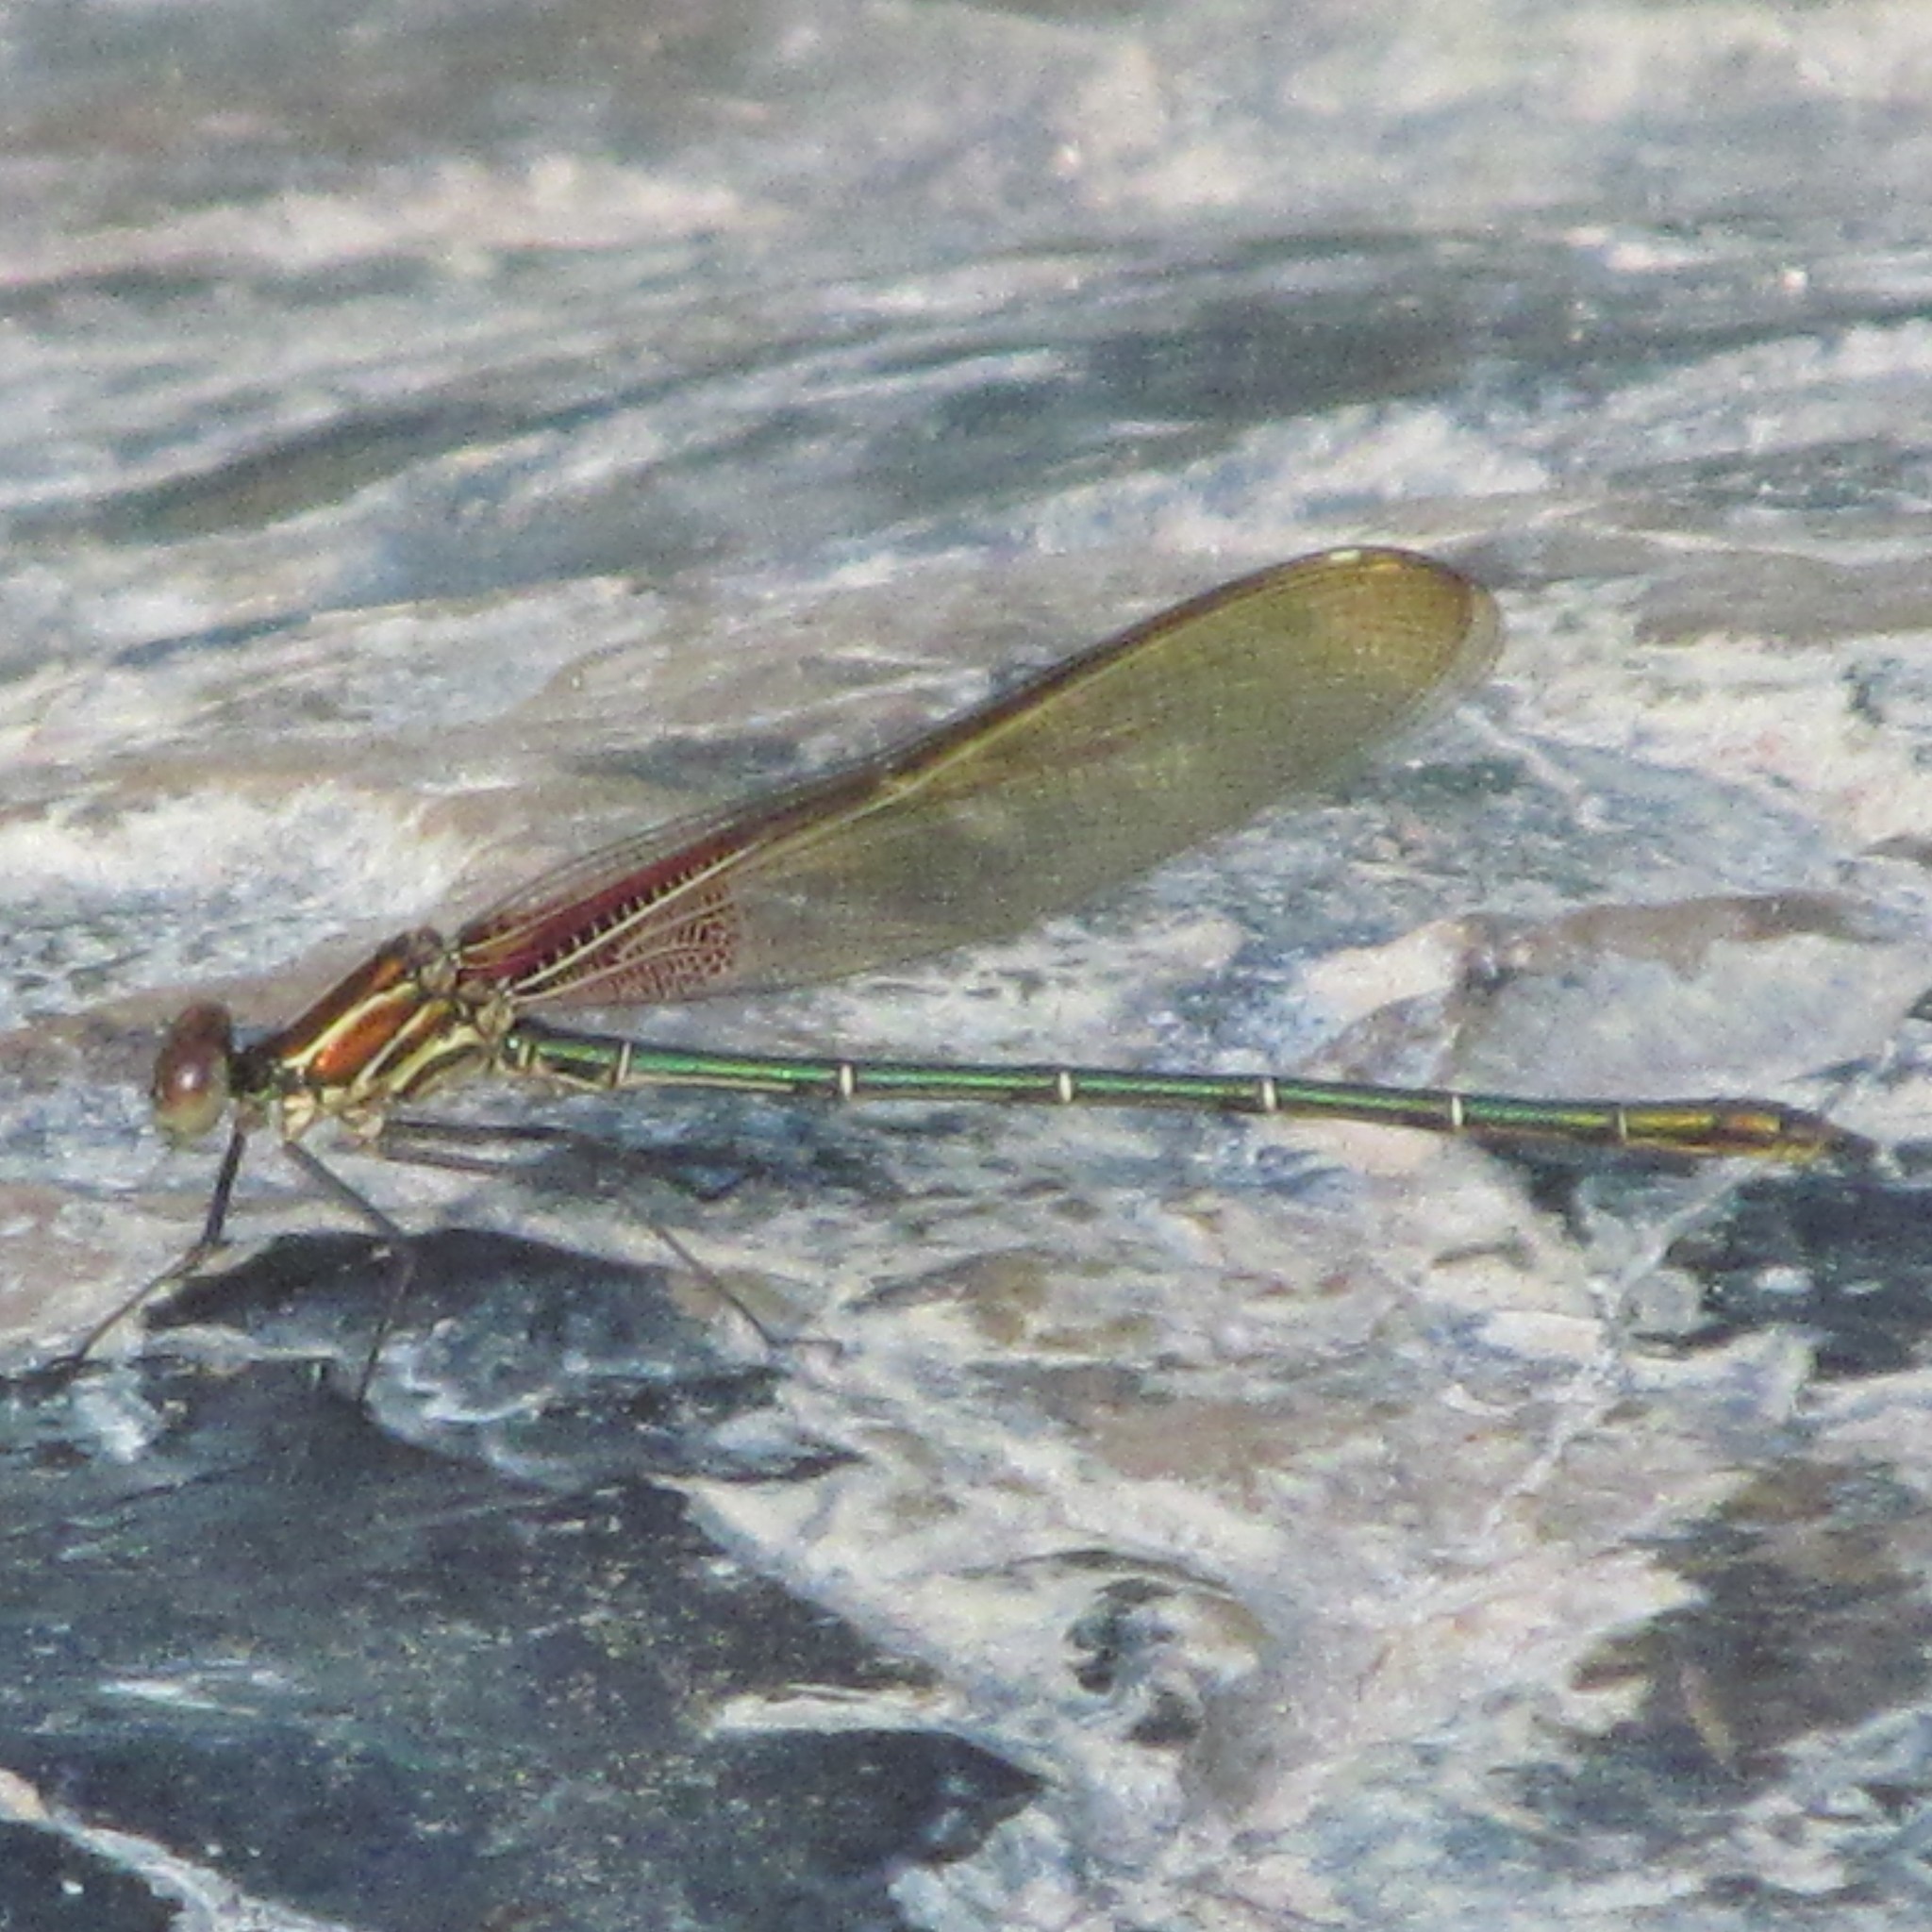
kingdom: Animalia
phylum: Arthropoda
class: Insecta
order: Odonata
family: Calopterygidae
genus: Hetaerina
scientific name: Hetaerina americana
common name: American rubyspot
